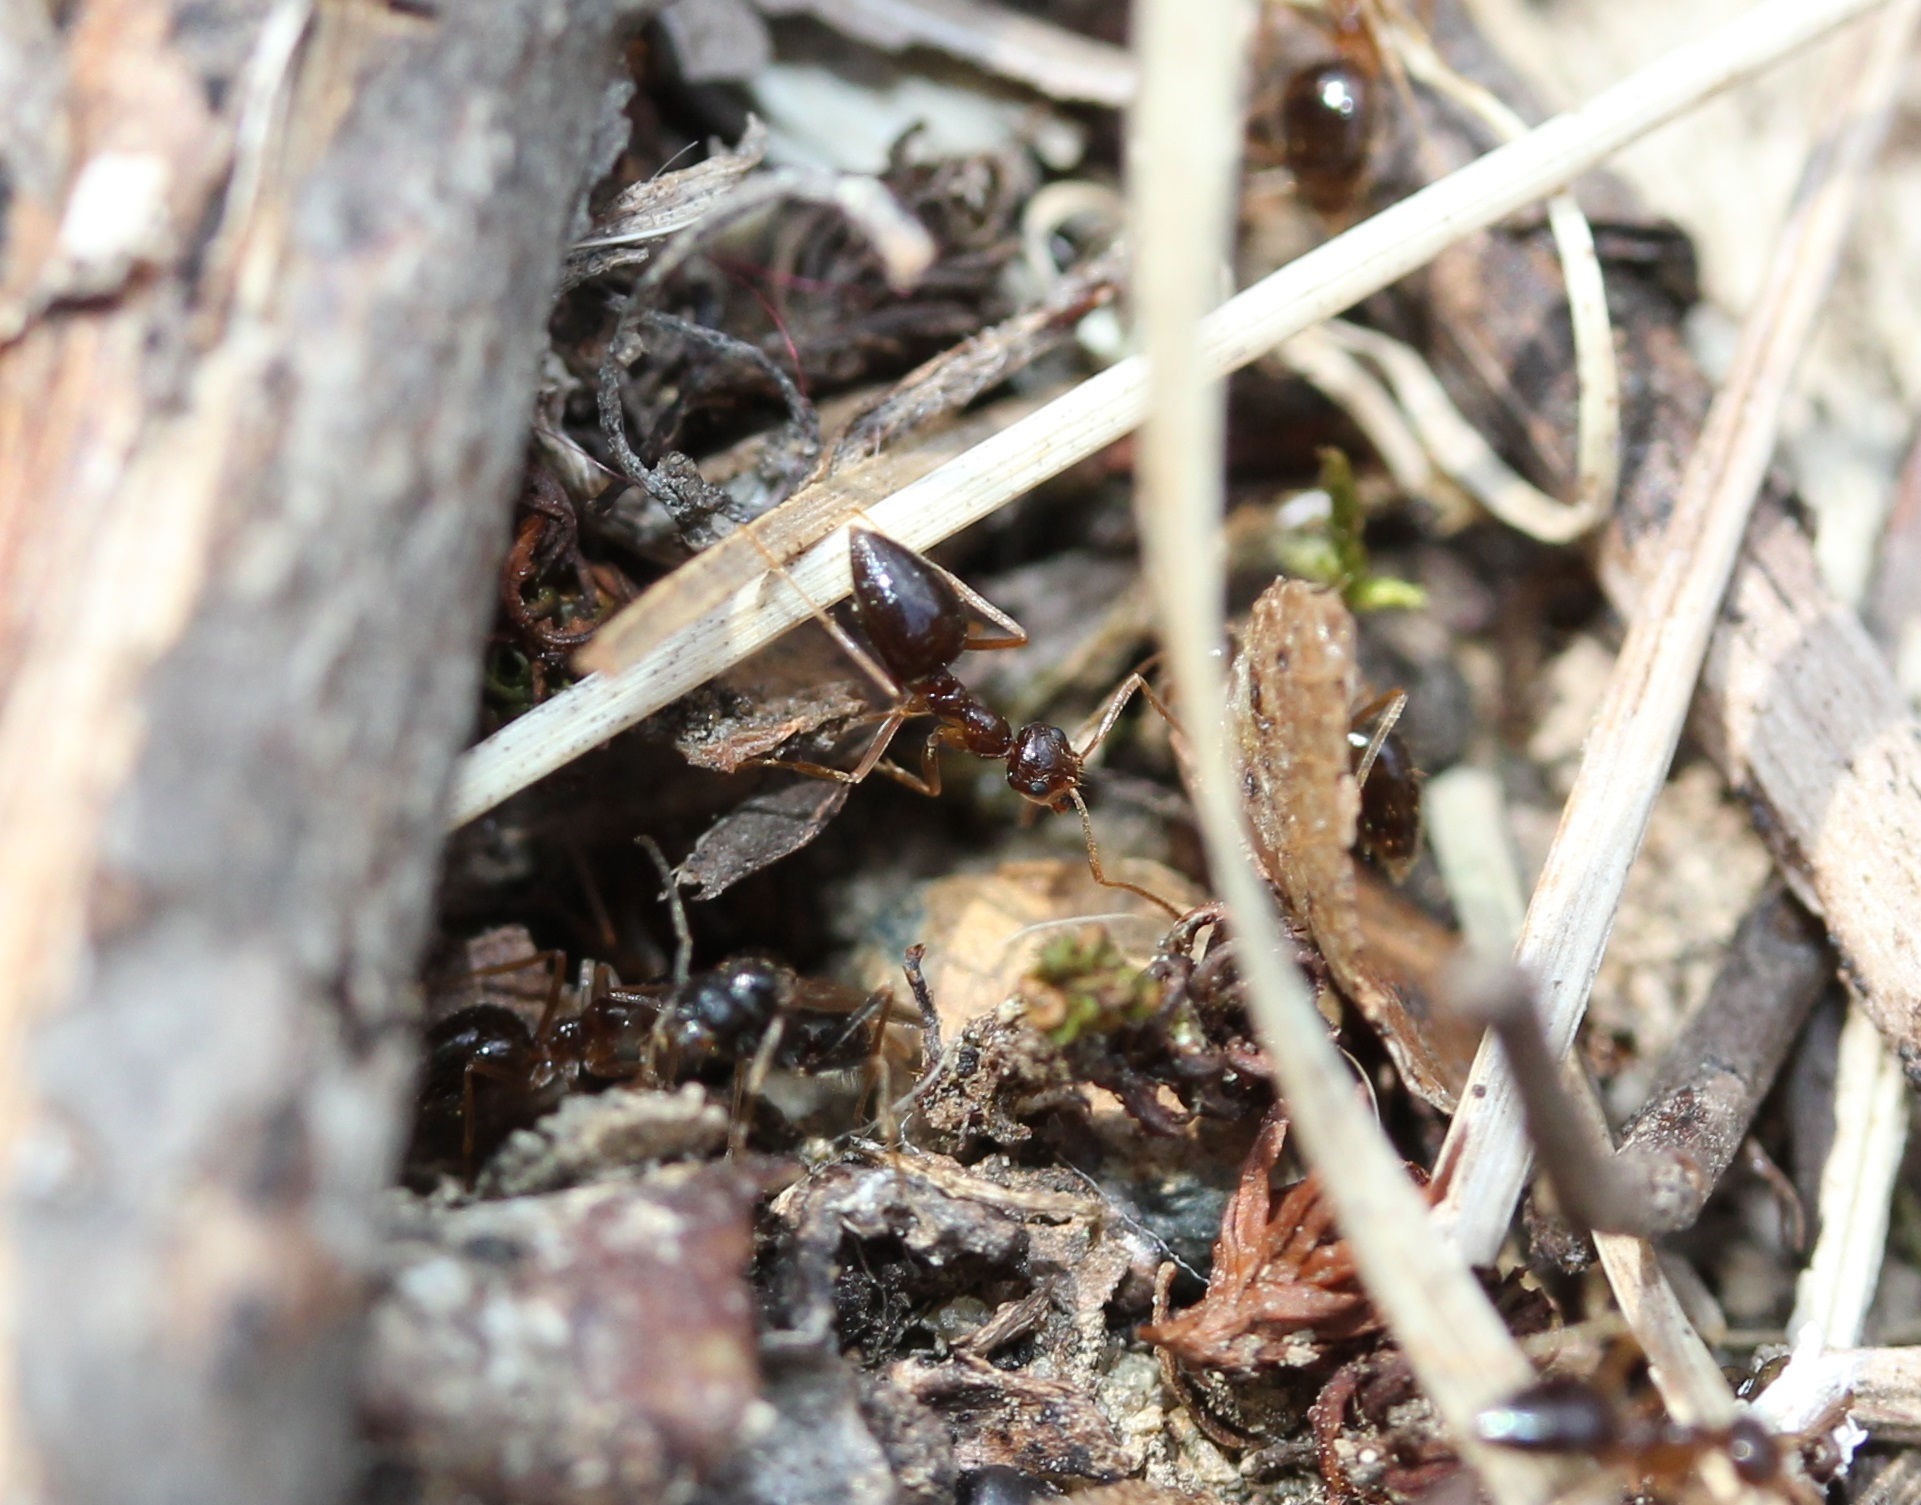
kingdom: Animalia
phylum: Arthropoda
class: Insecta
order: Hymenoptera
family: Formicidae
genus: Prenolepis
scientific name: Prenolepis imparis
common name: Small honey ant
